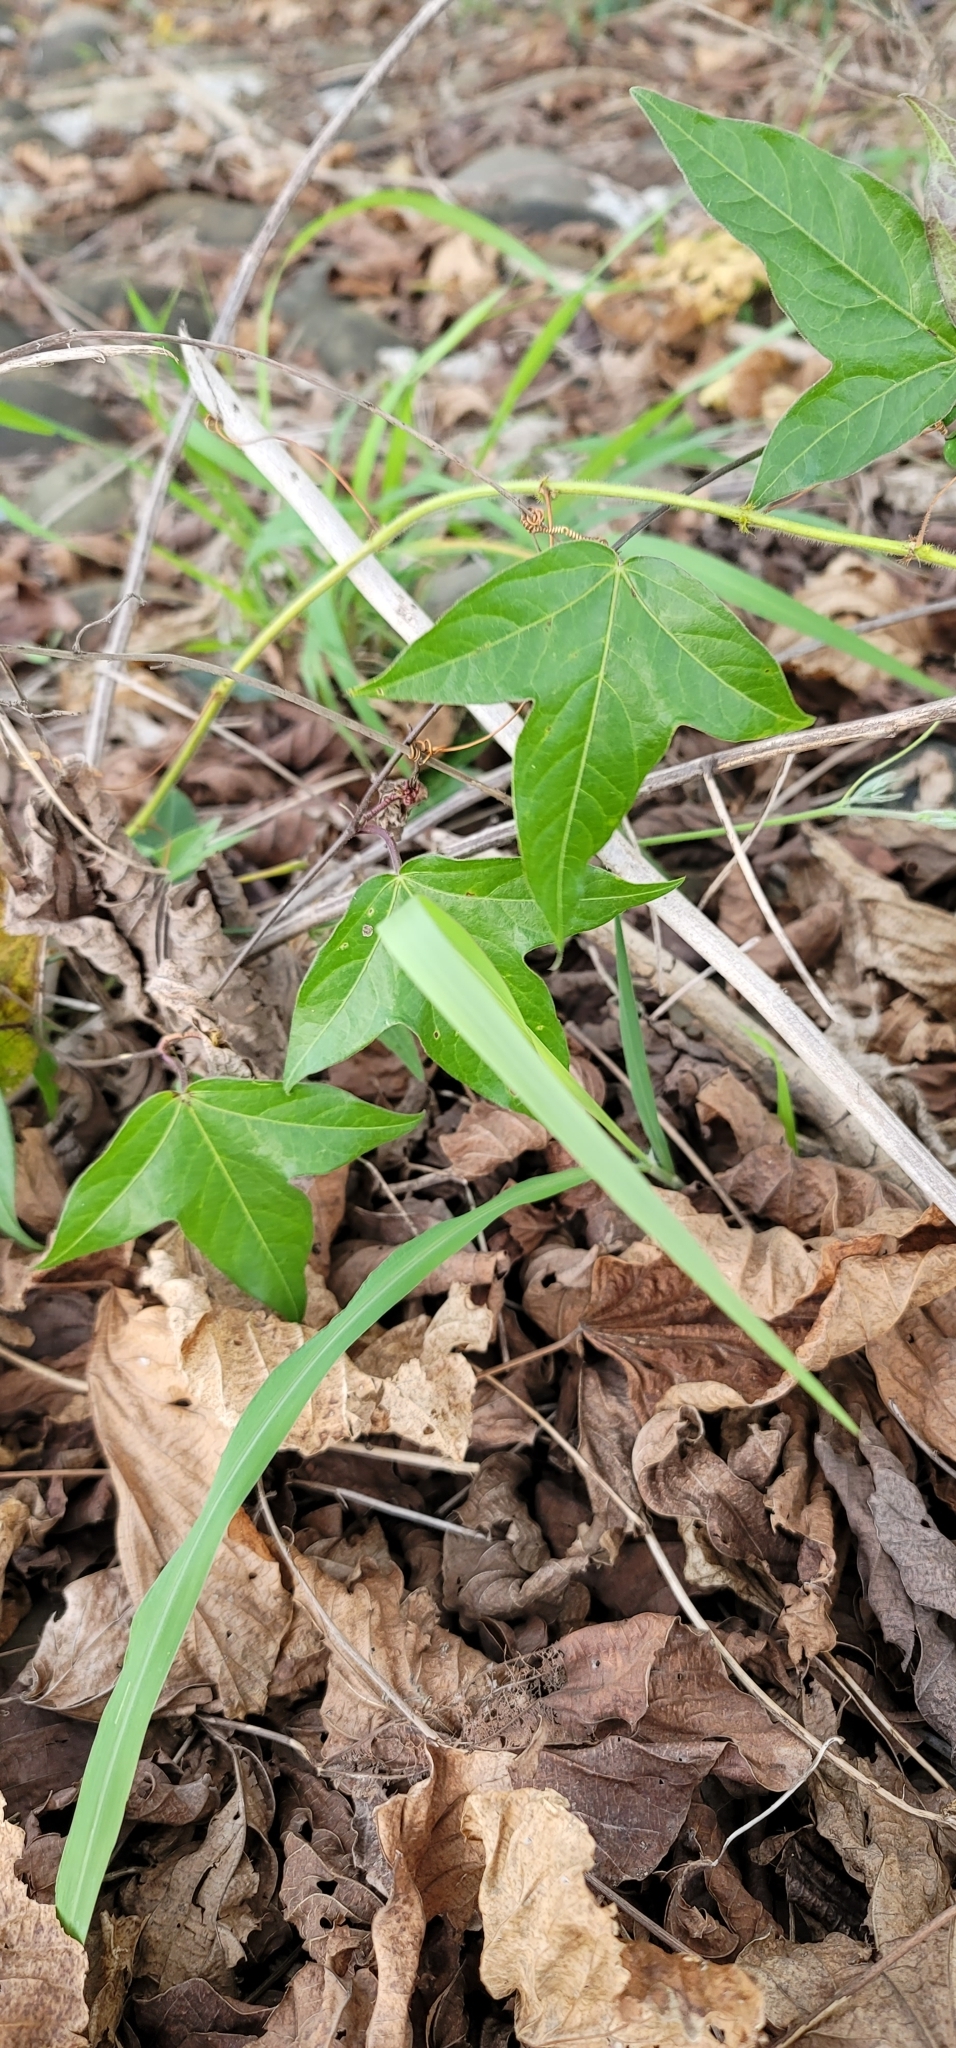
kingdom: Plantae
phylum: Tracheophyta
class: Magnoliopsida
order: Malpighiales
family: Passifloraceae
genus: Passiflora
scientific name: Passiflora suberosa
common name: Wild passionfruit
